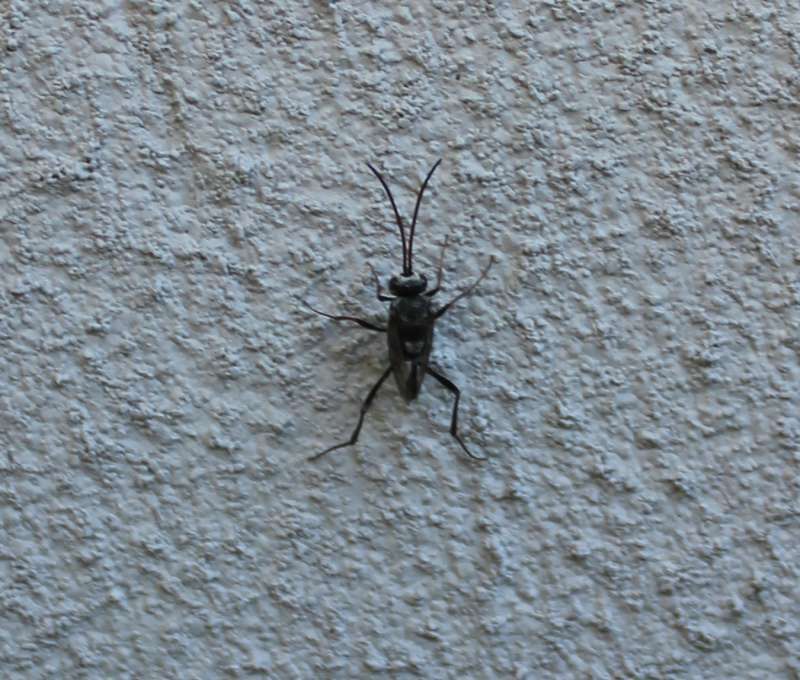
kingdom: Animalia
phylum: Arthropoda
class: Insecta
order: Hymenoptera
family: Evaniidae
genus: Prosevania
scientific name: Prosevania fuscipes
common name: Ensign wasp
